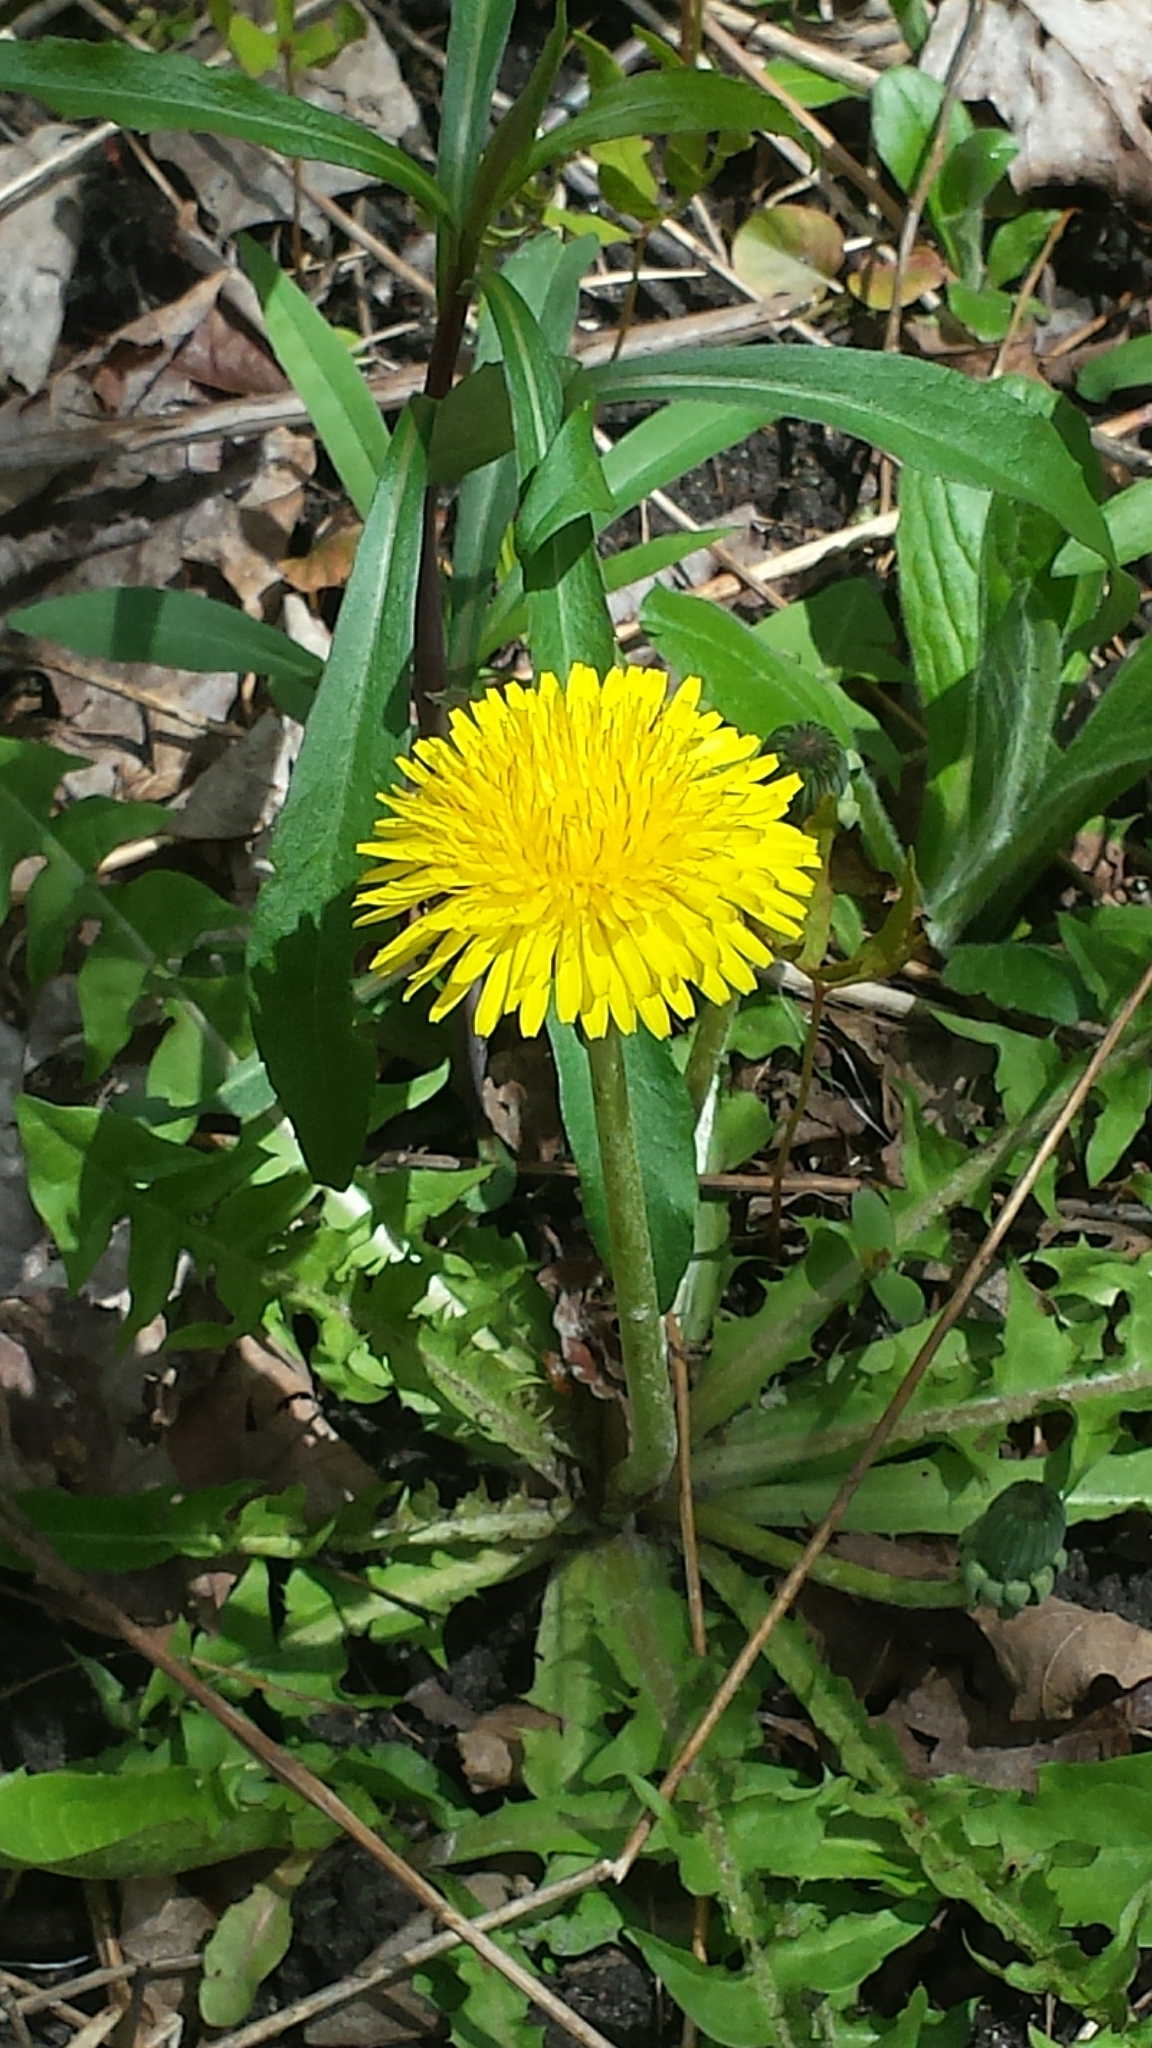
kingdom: Plantae
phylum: Tracheophyta
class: Magnoliopsida
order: Asterales
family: Asteraceae
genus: Taraxacum
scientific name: Taraxacum officinale
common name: Common dandelion
